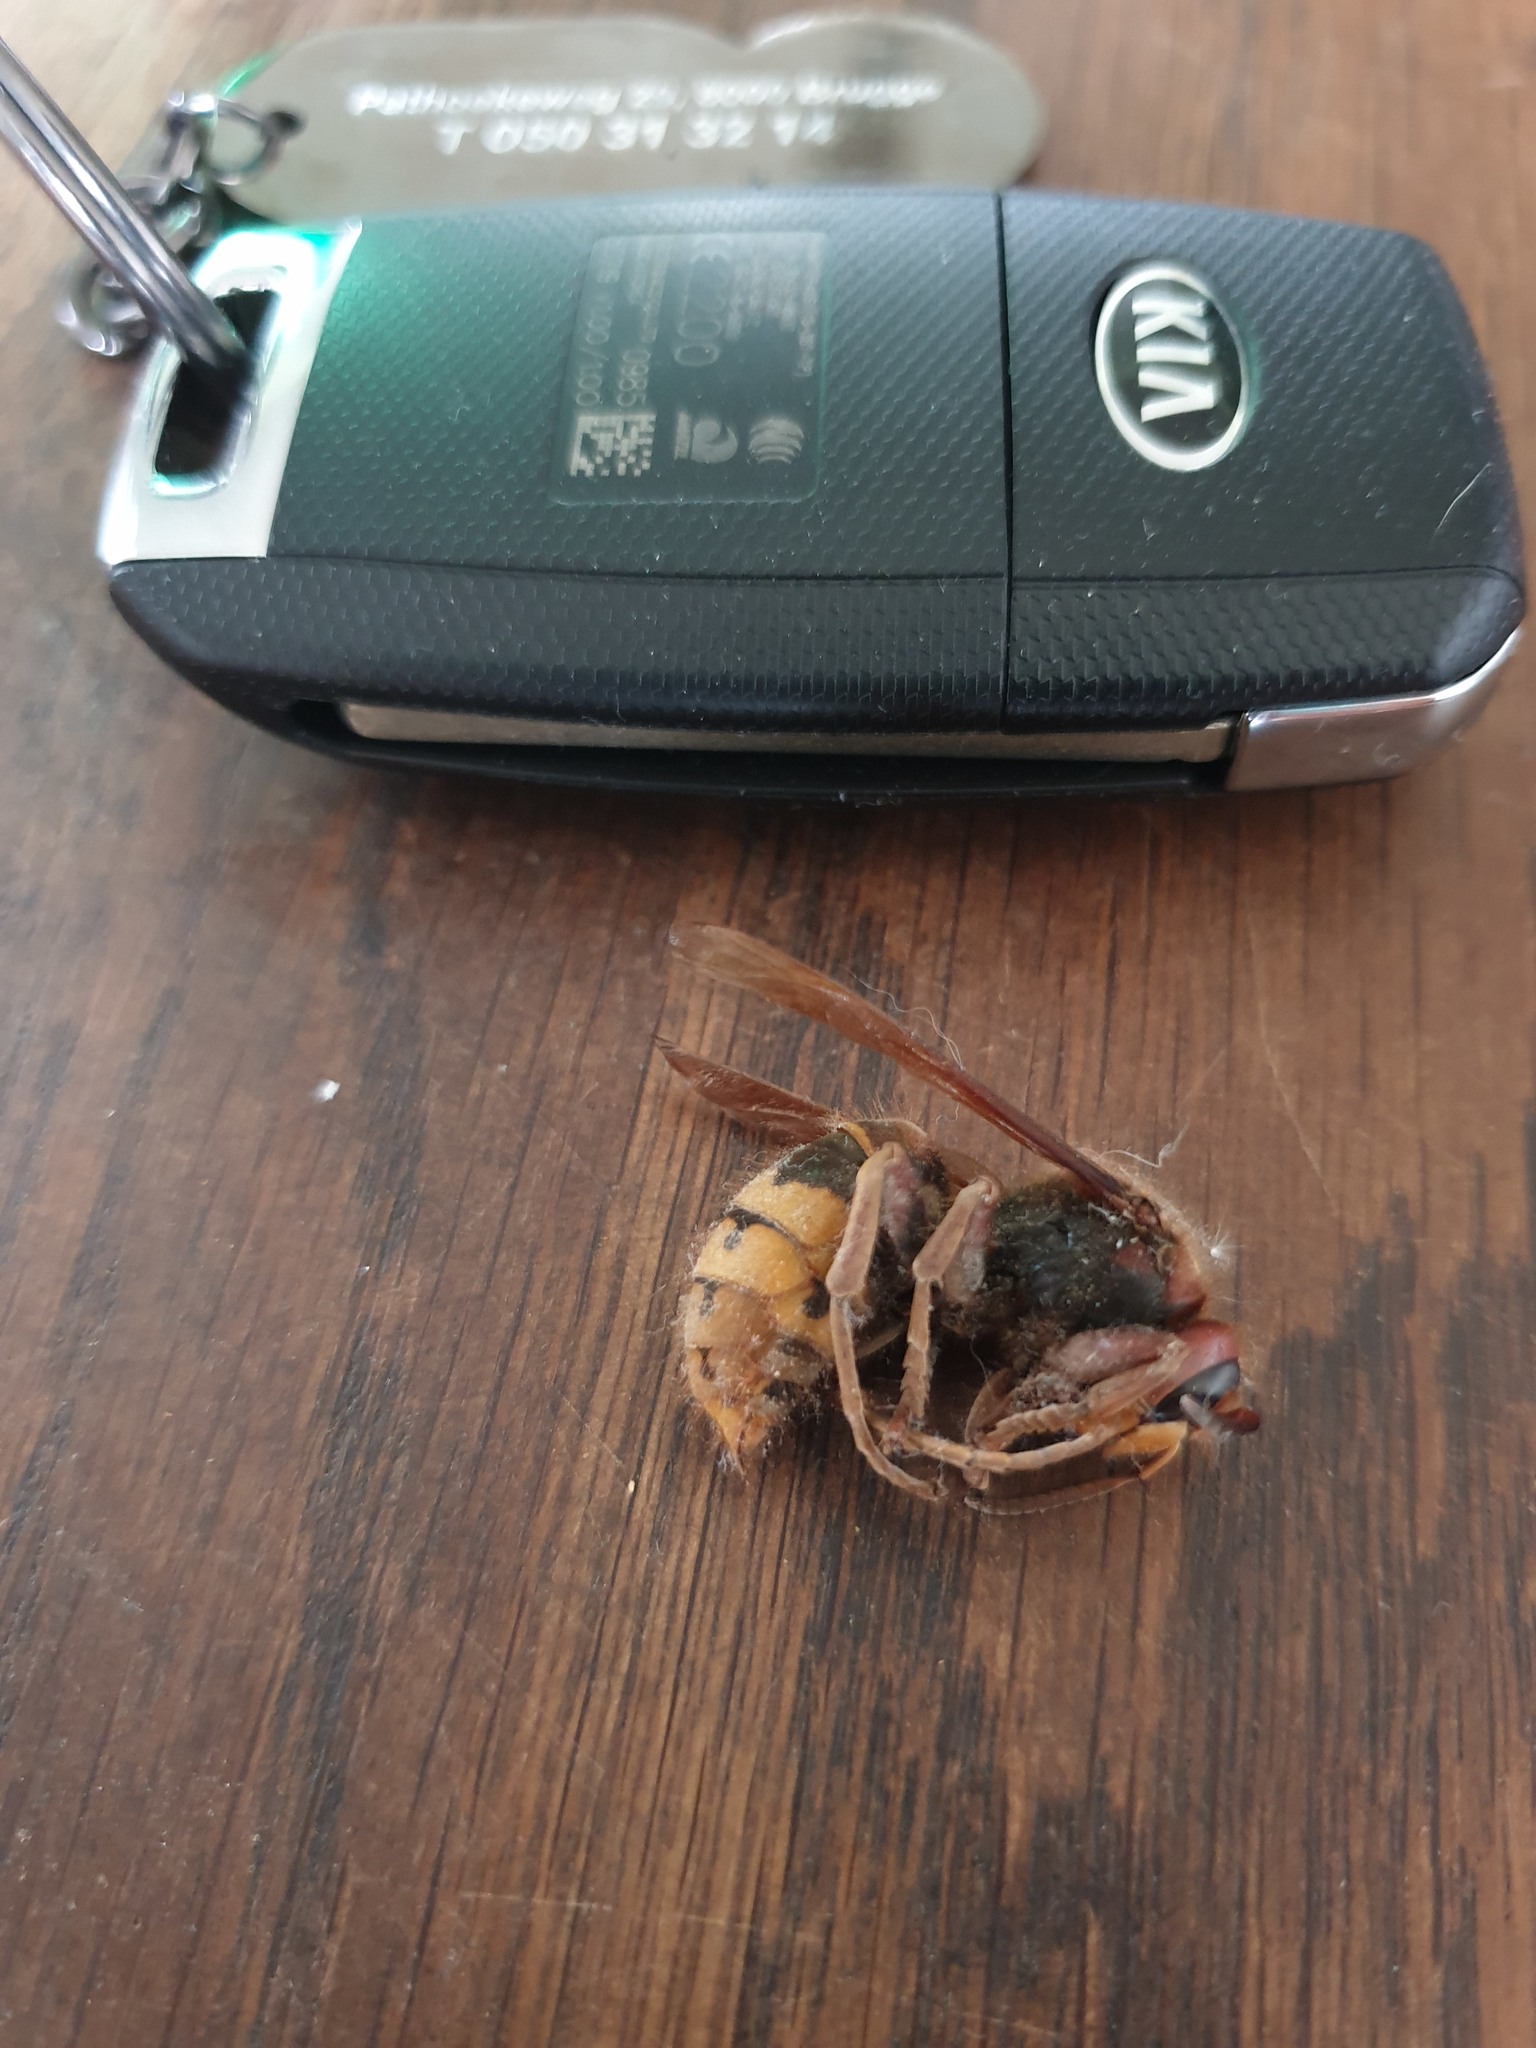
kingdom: Animalia
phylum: Arthropoda
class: Insecta
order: Hymenoptera
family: Vespidae
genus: Vespa
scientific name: Vespa crabro
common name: Hornet
